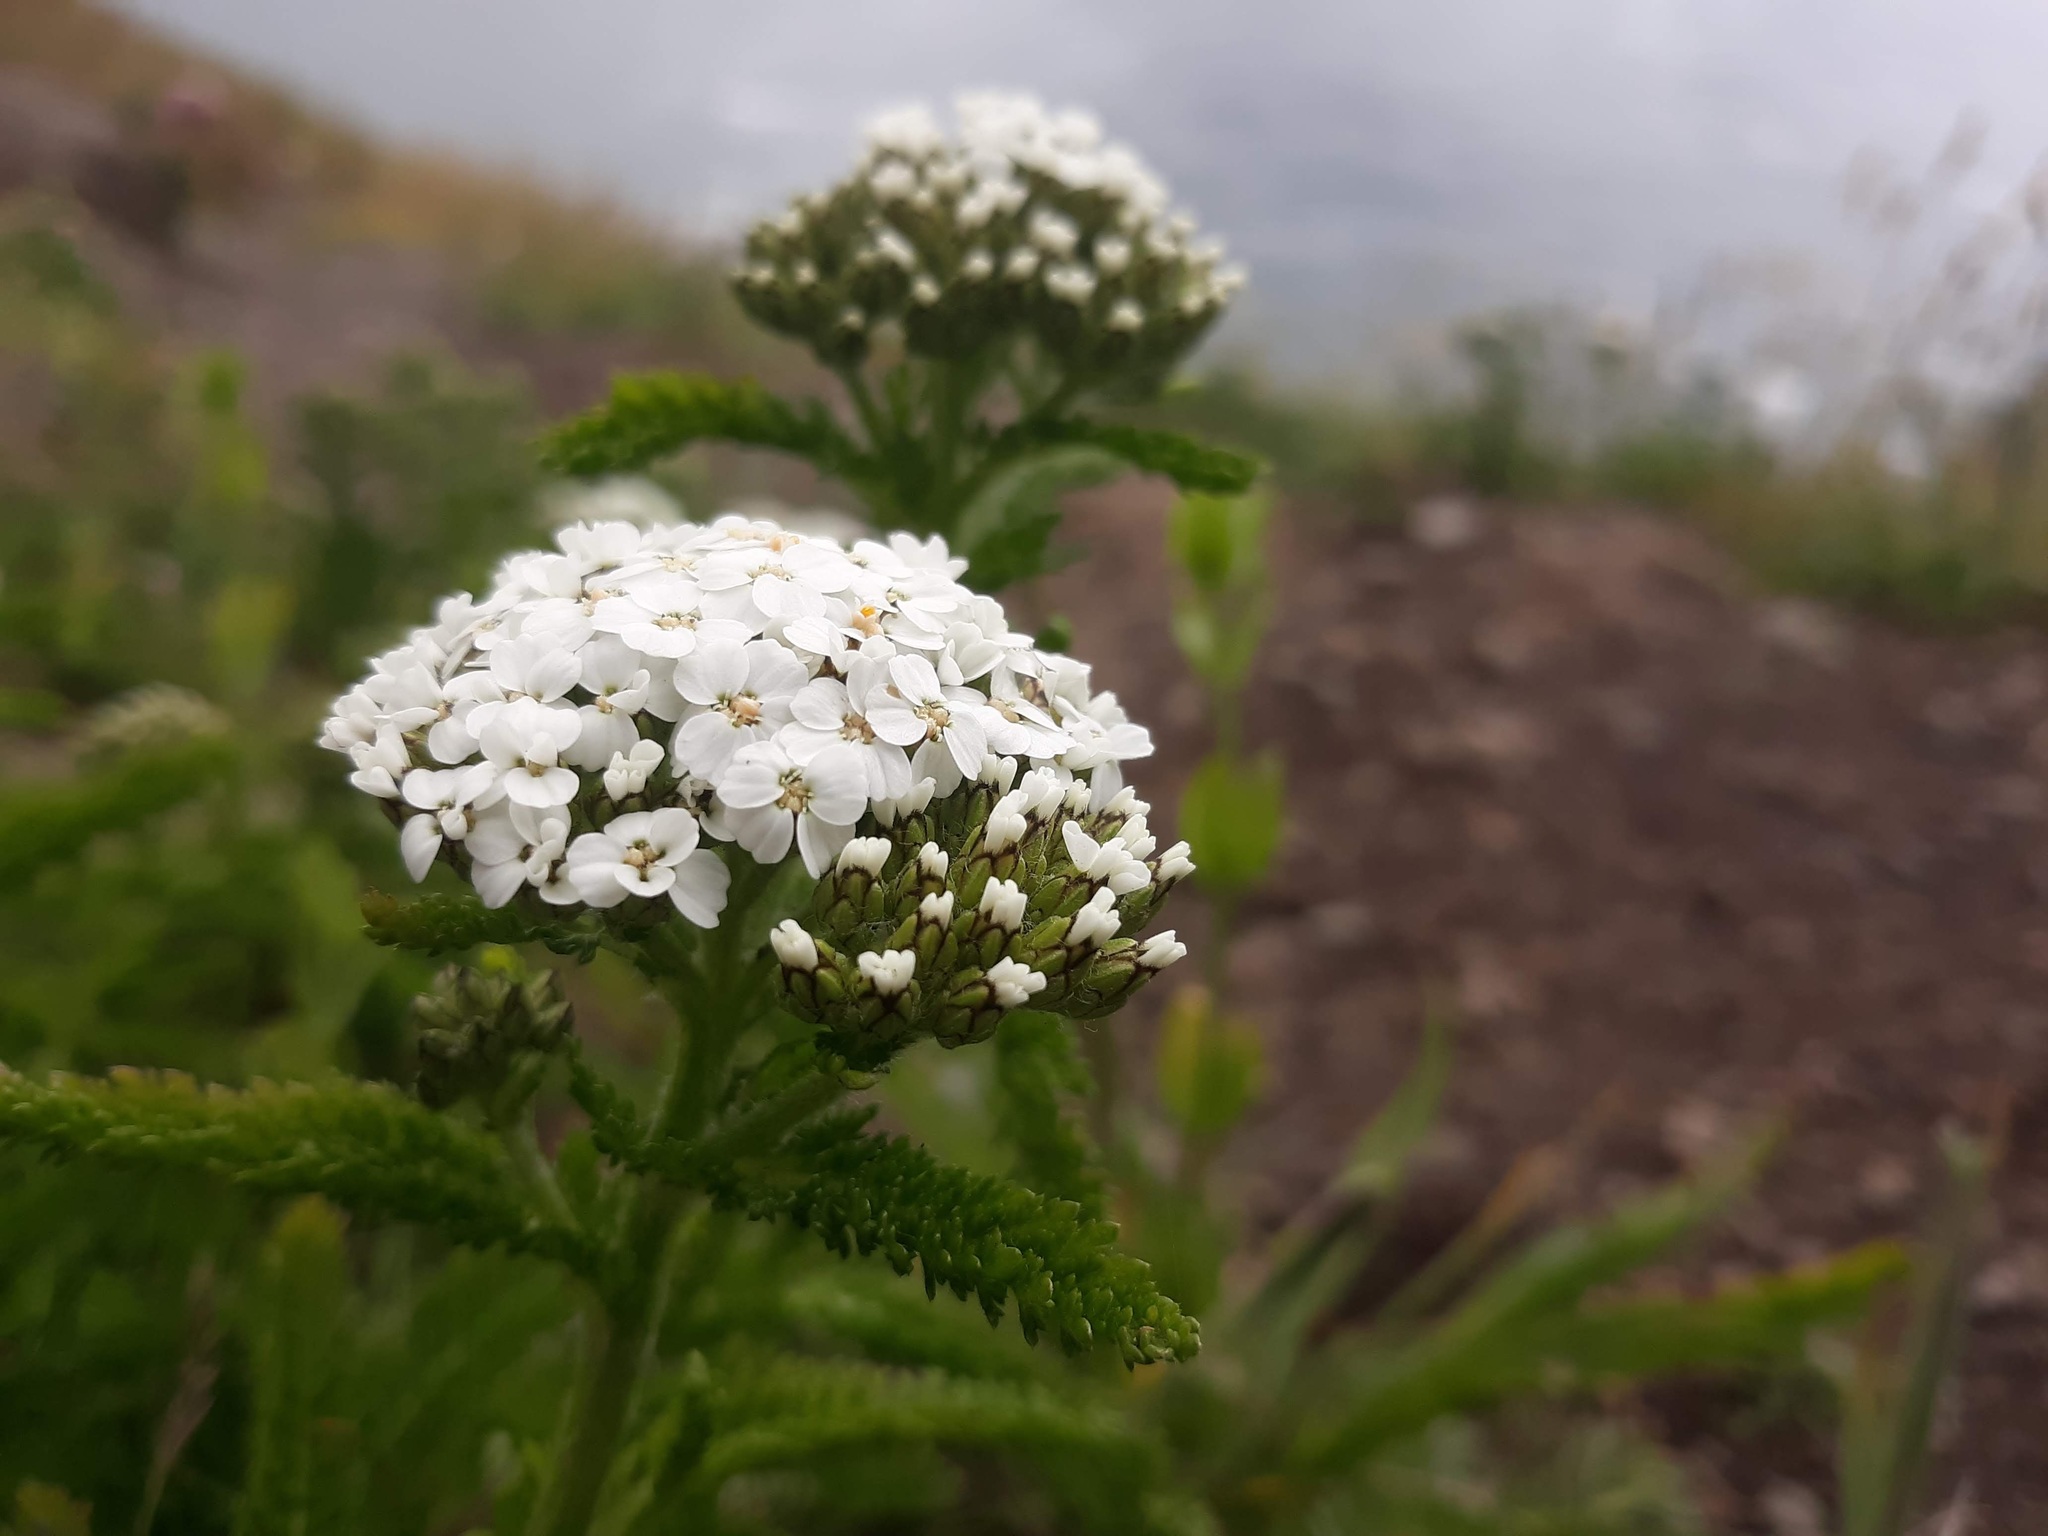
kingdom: Plantae
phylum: Tracheophyta
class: Magnoliopsida
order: Asterales
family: Asteraceae
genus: Achillea
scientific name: Achillea millefolium
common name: Yarrow
